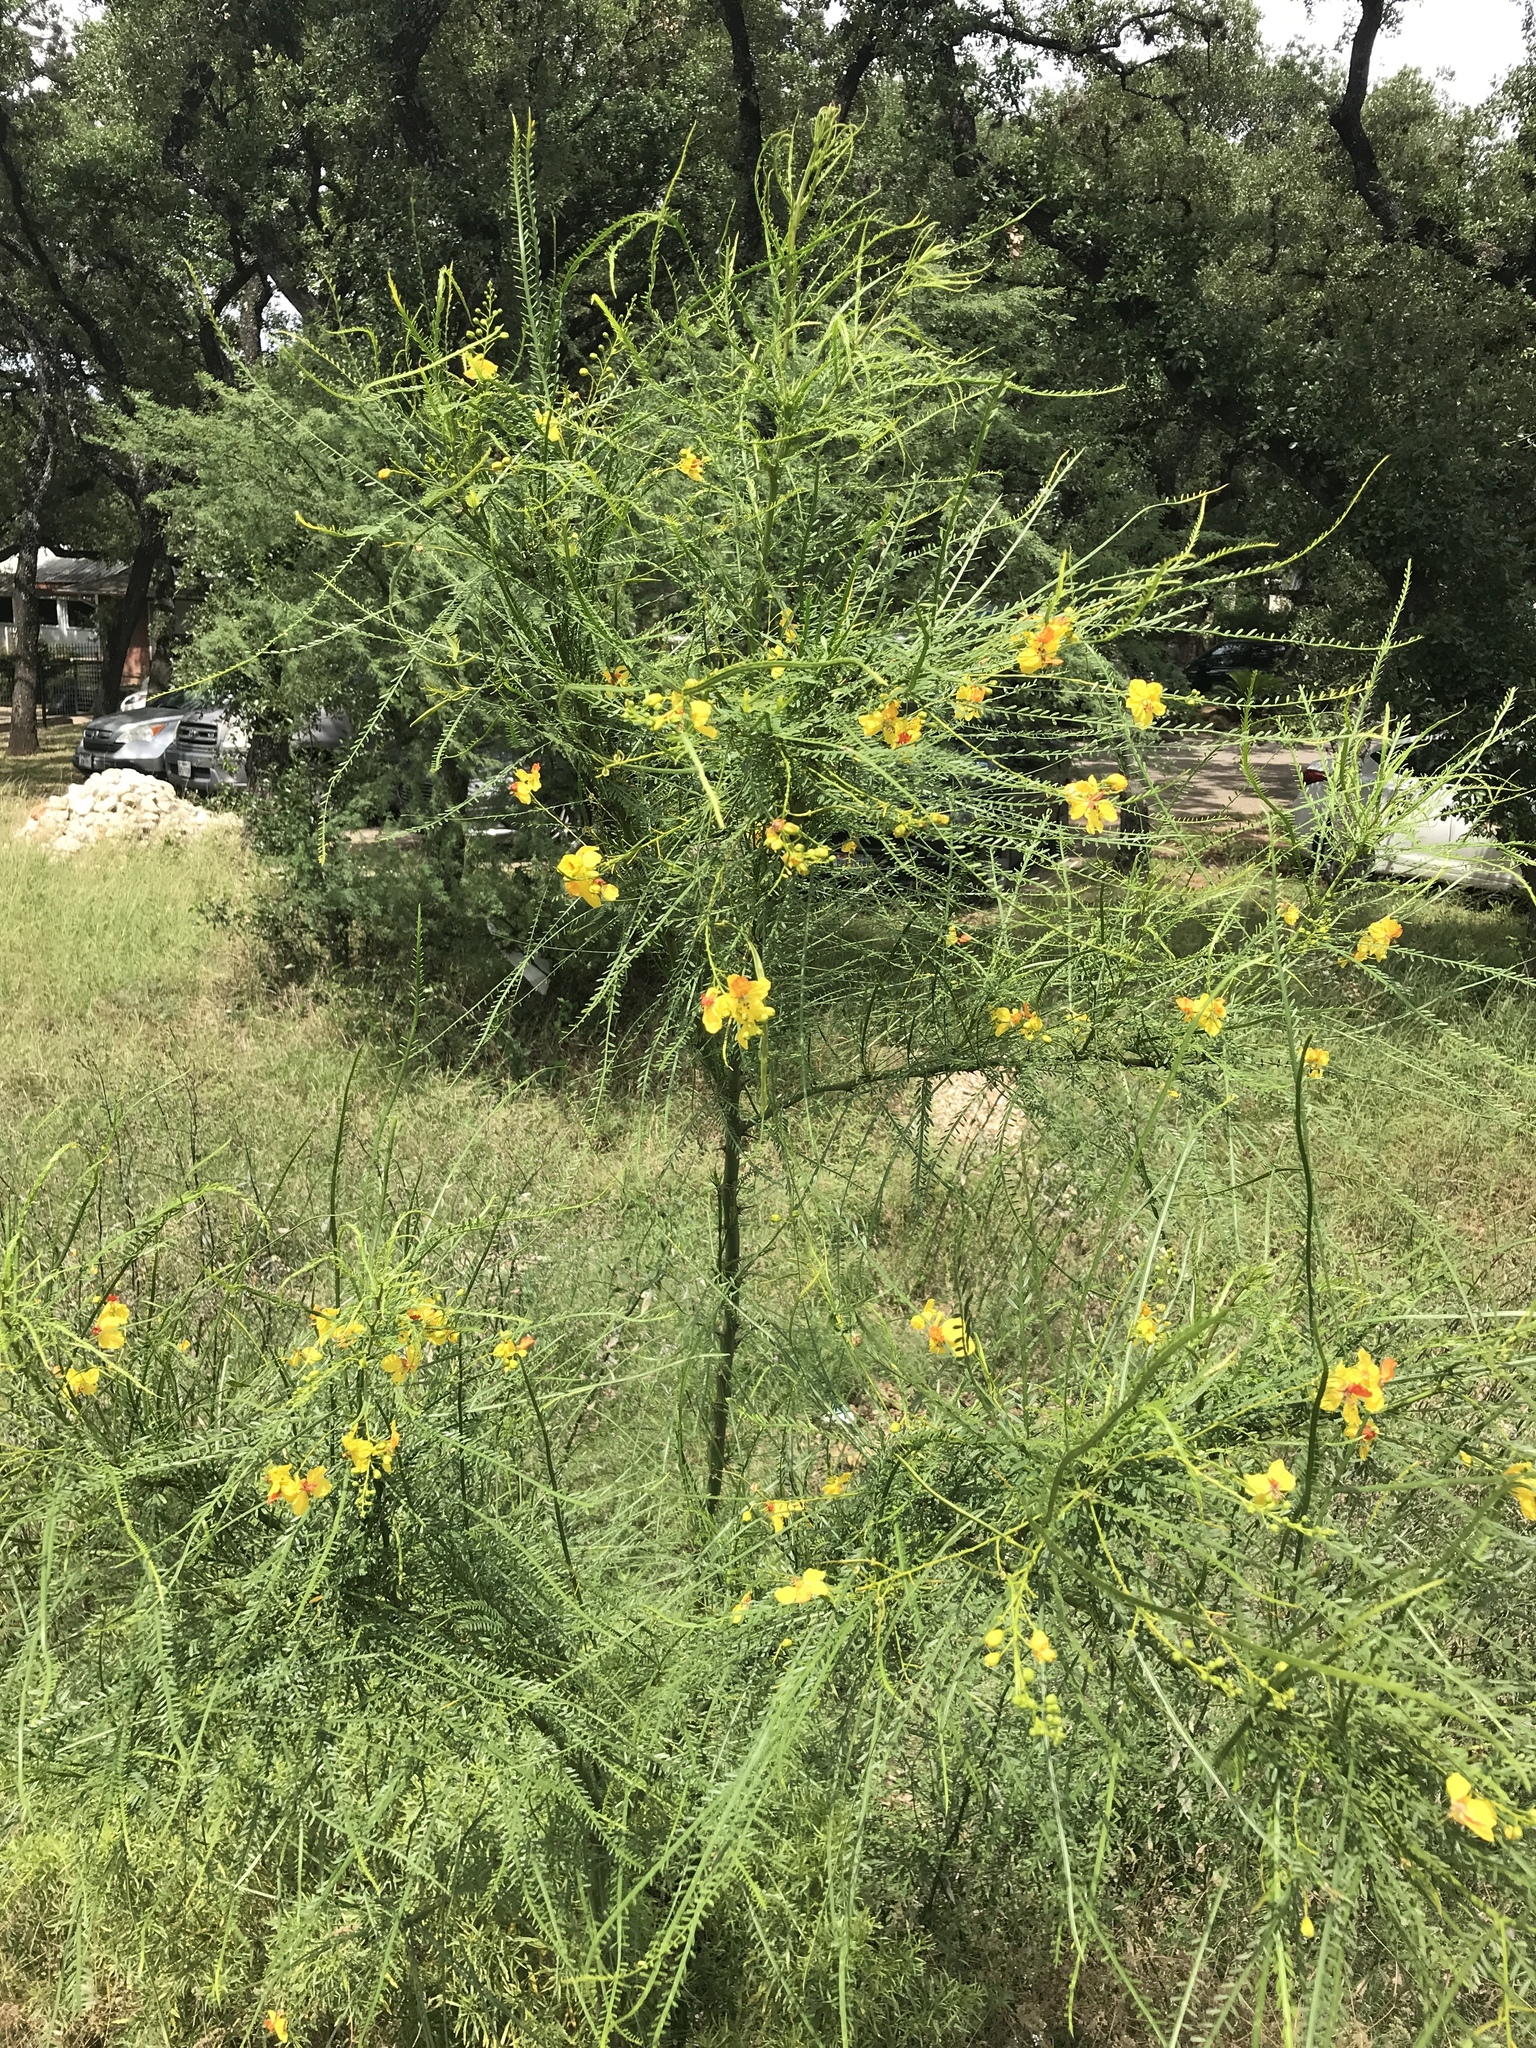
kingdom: Plantae
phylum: Tracheophyta
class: Magnoliopsida
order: Fabales
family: Fabaceae
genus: Parkinsonia
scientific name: Parkinsonia aculeata
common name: Jerusalem thorn
